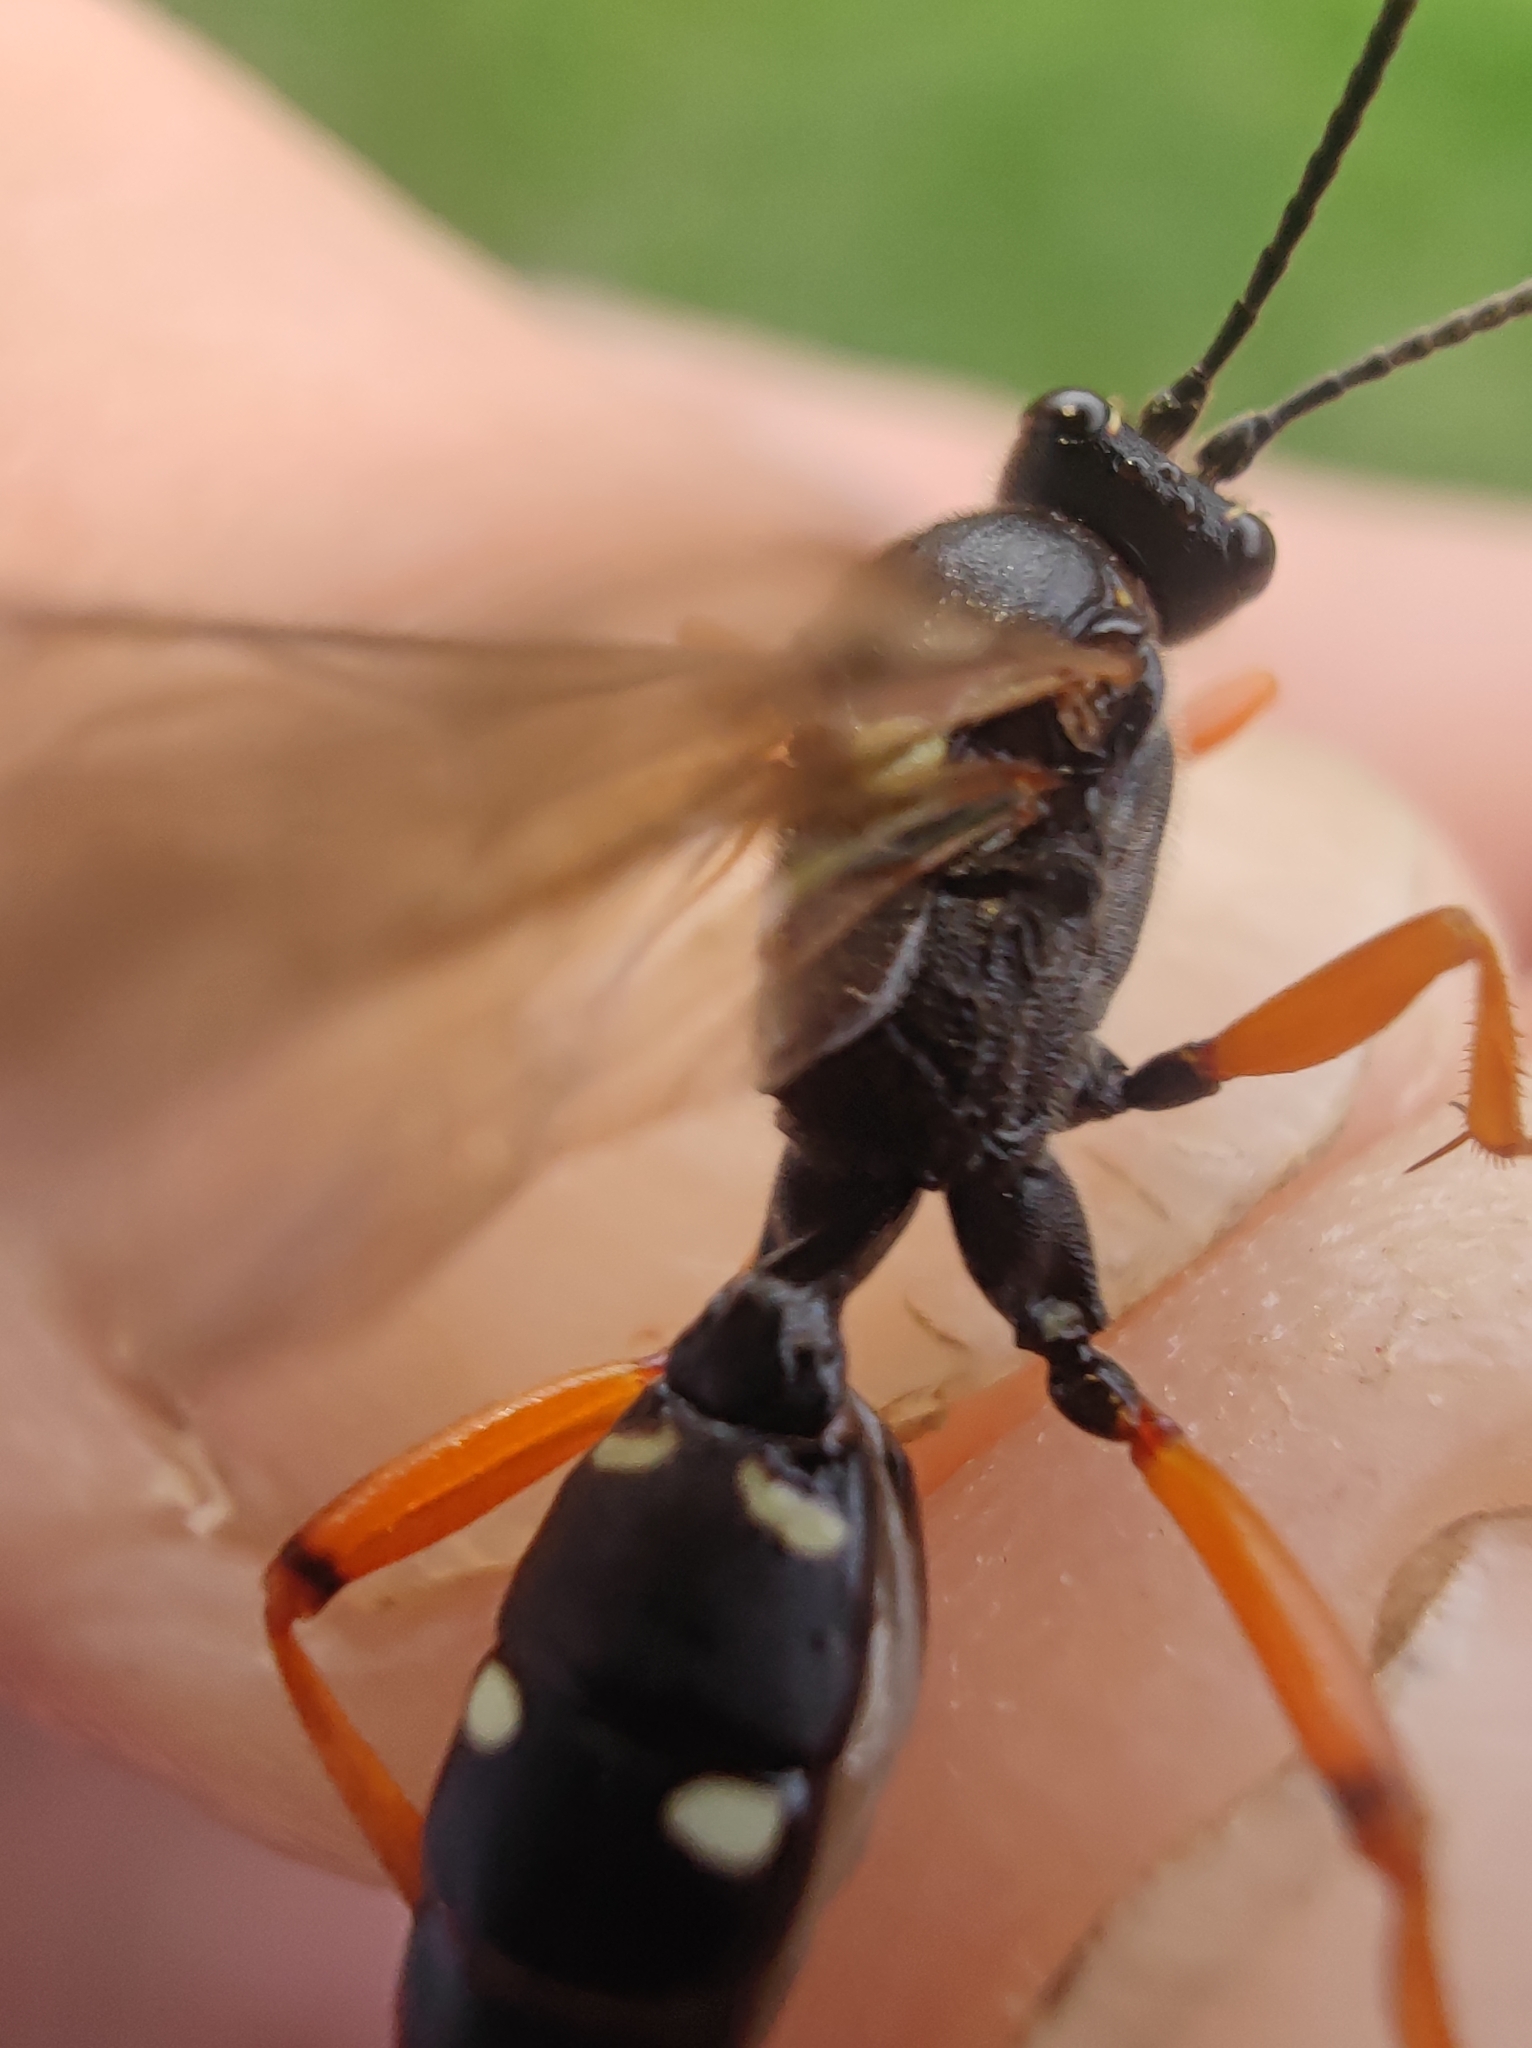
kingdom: Animalia
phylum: Arthropoda
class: Insecta
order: Hymenoptera
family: Ichneumonidae
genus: Diphyus
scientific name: Diphyus quadripunctorius
